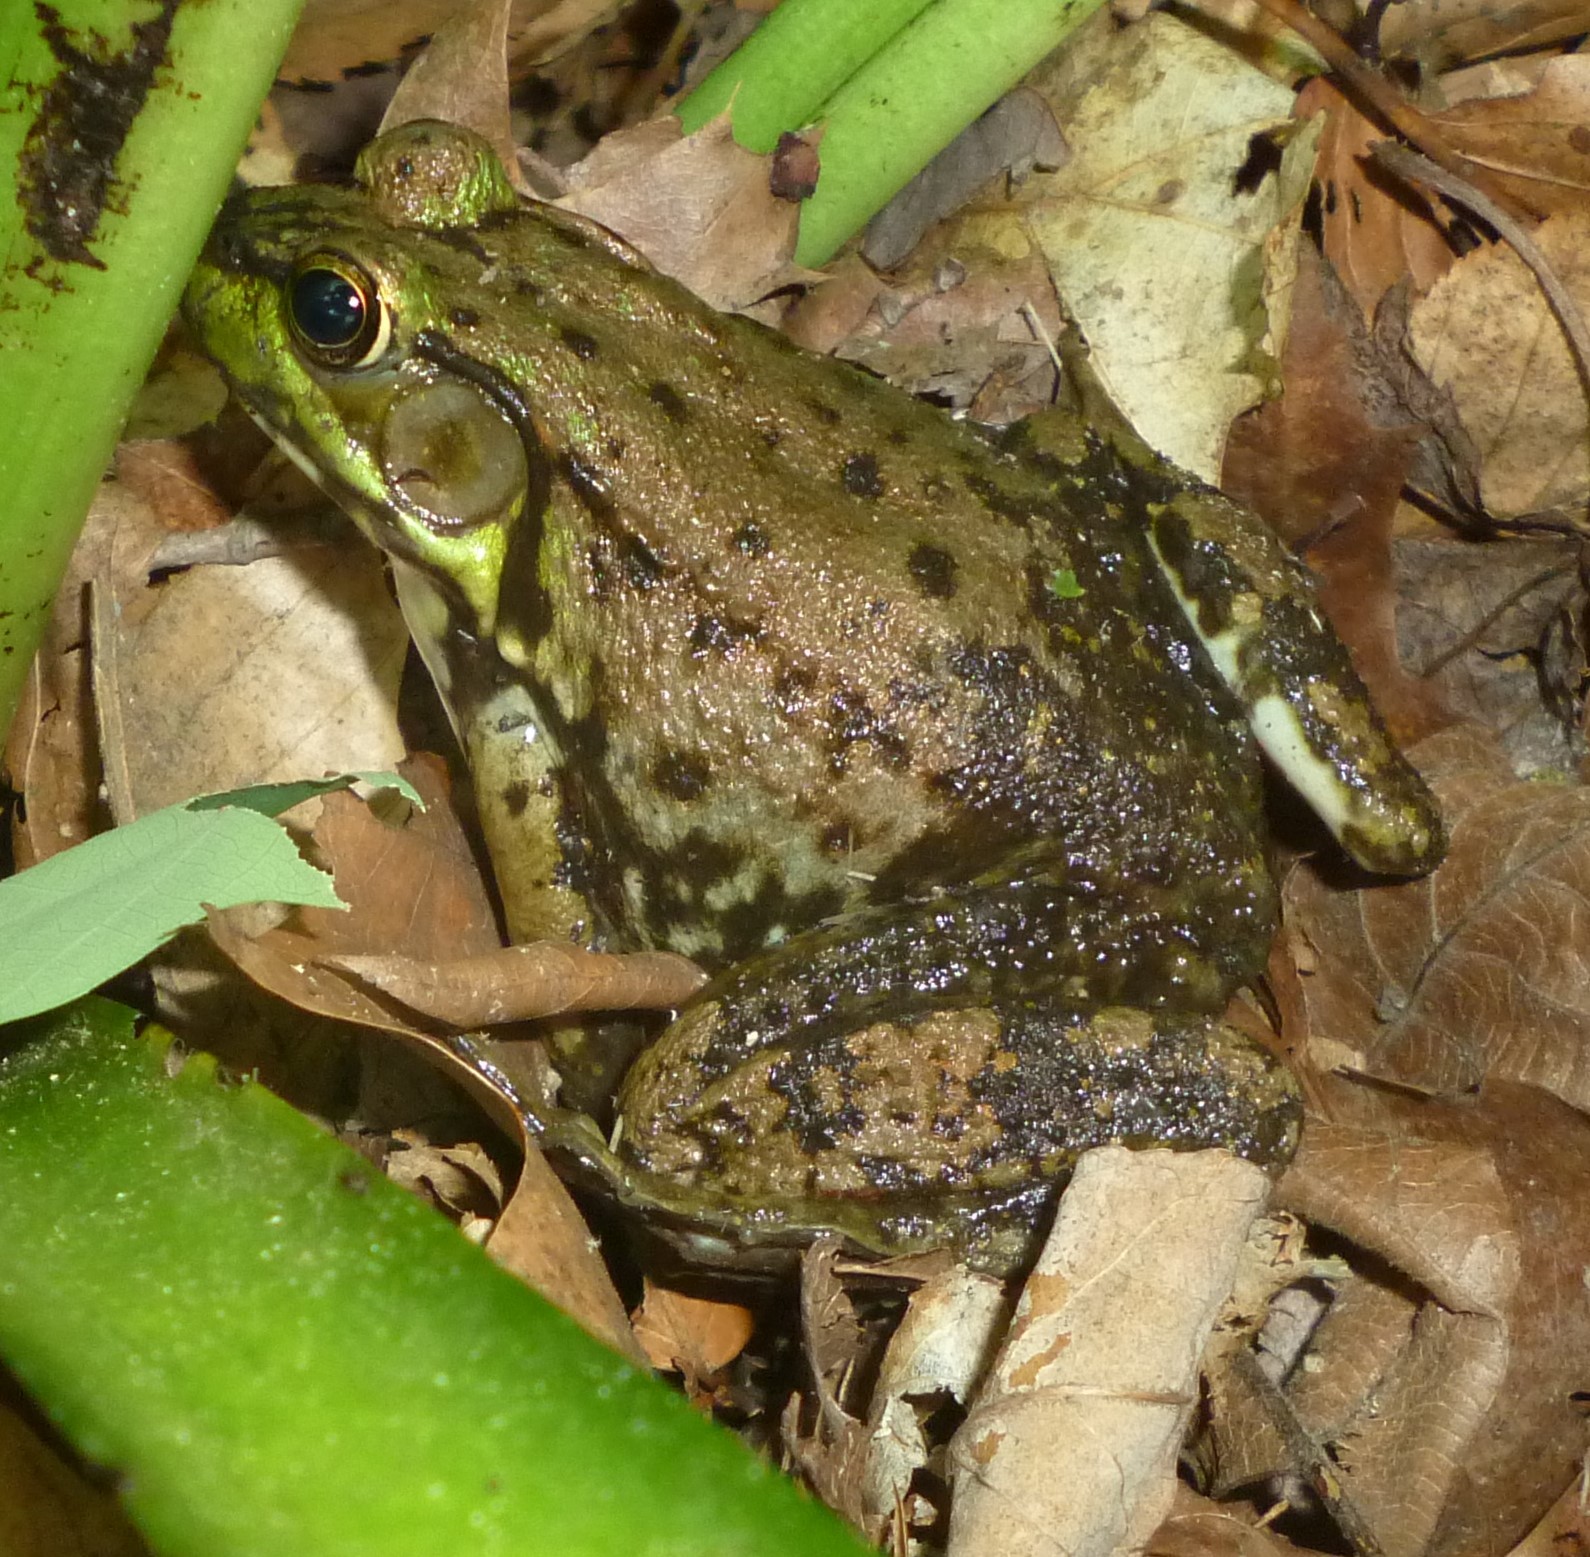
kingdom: Animalia
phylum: Chordata
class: Amphibia
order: Anura
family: Ranidae
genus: Lithobates
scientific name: Lithobates clamitans
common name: Green frog
